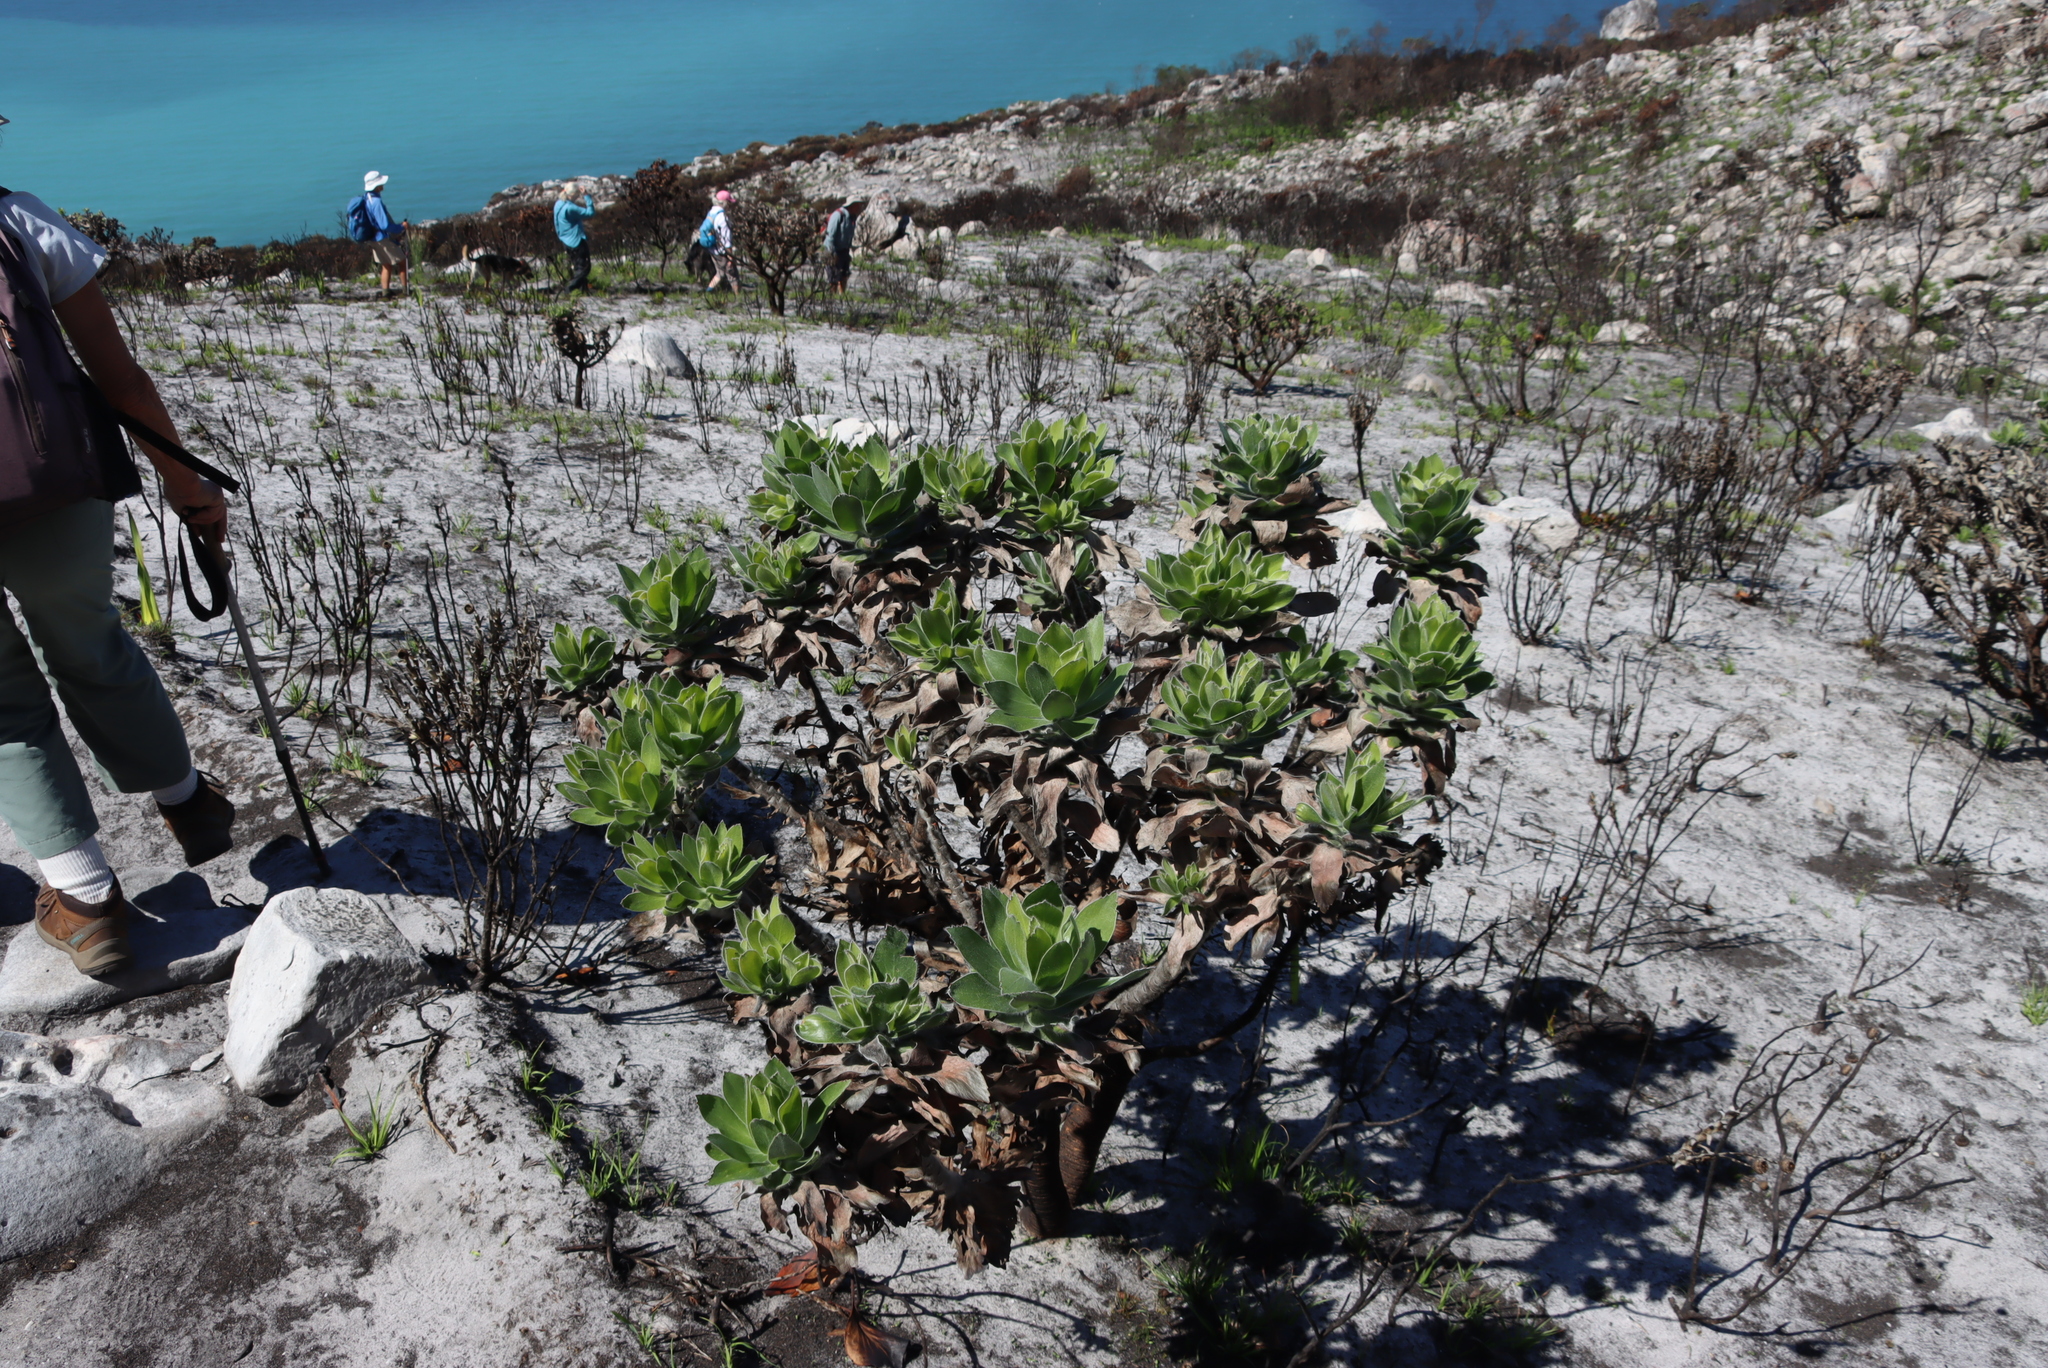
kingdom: Plantae
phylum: Tracheophyta
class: Magnoliopsida
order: Proteales
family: Proteaceae
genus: Leucospermum
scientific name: Leucospermum conocarpodendron
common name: Tree pincushion
